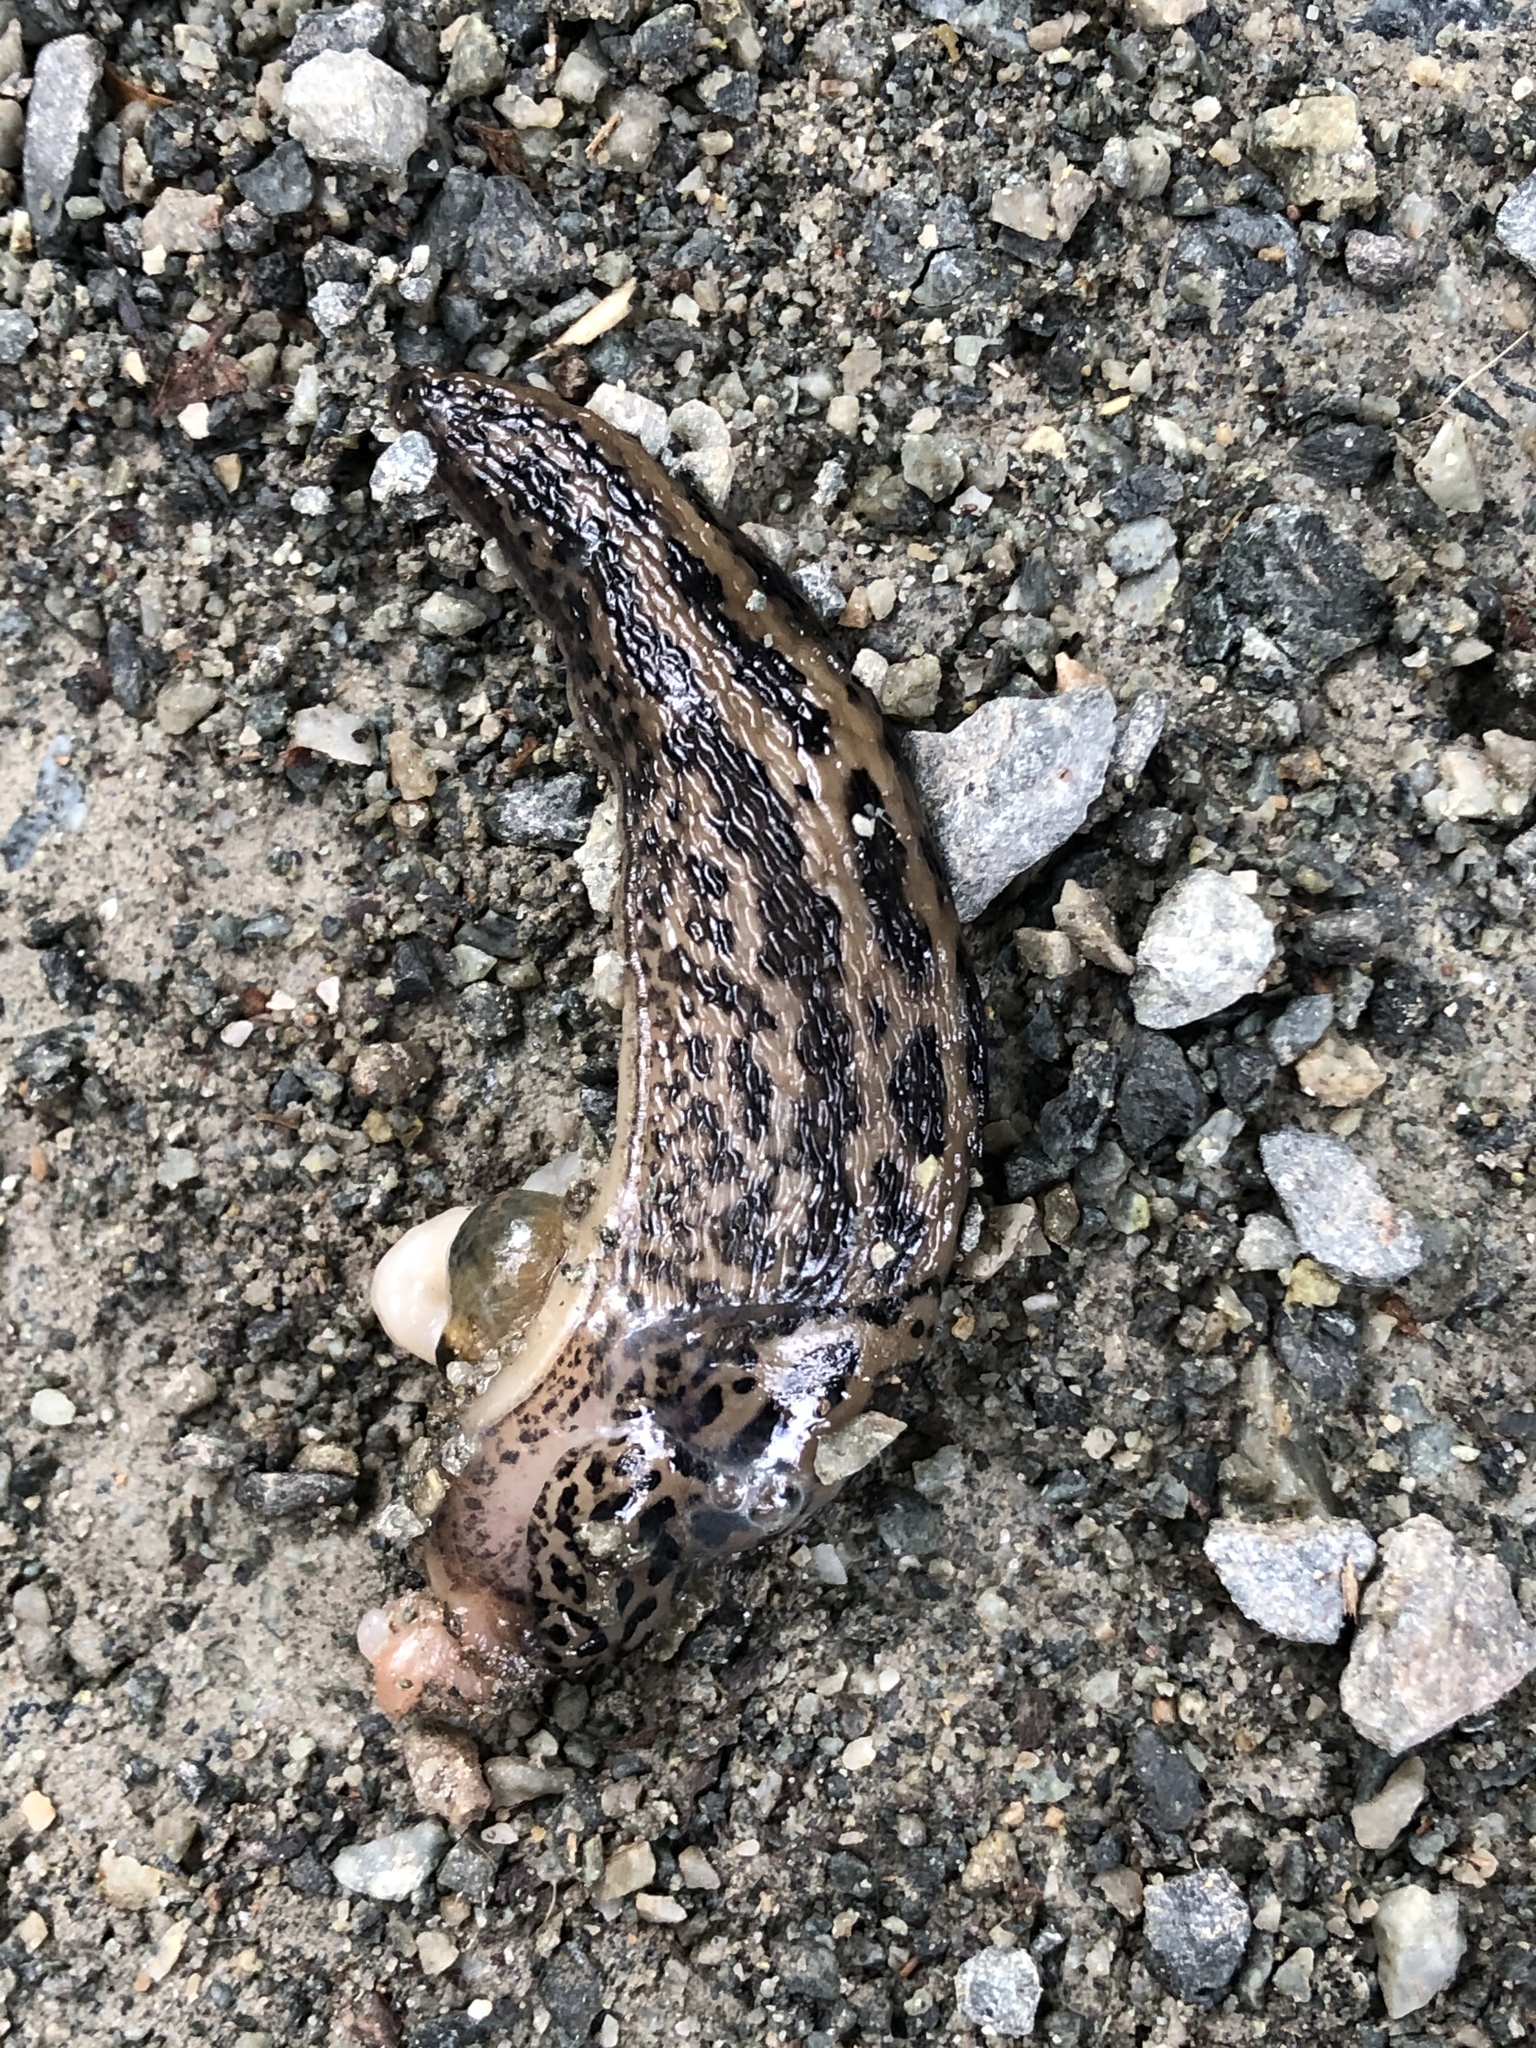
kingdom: Animalia
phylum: Mollusca
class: Gastropoda
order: Stylommatophora
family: Limacidae
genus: Limax
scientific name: Limax maximus
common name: Great grey slug
